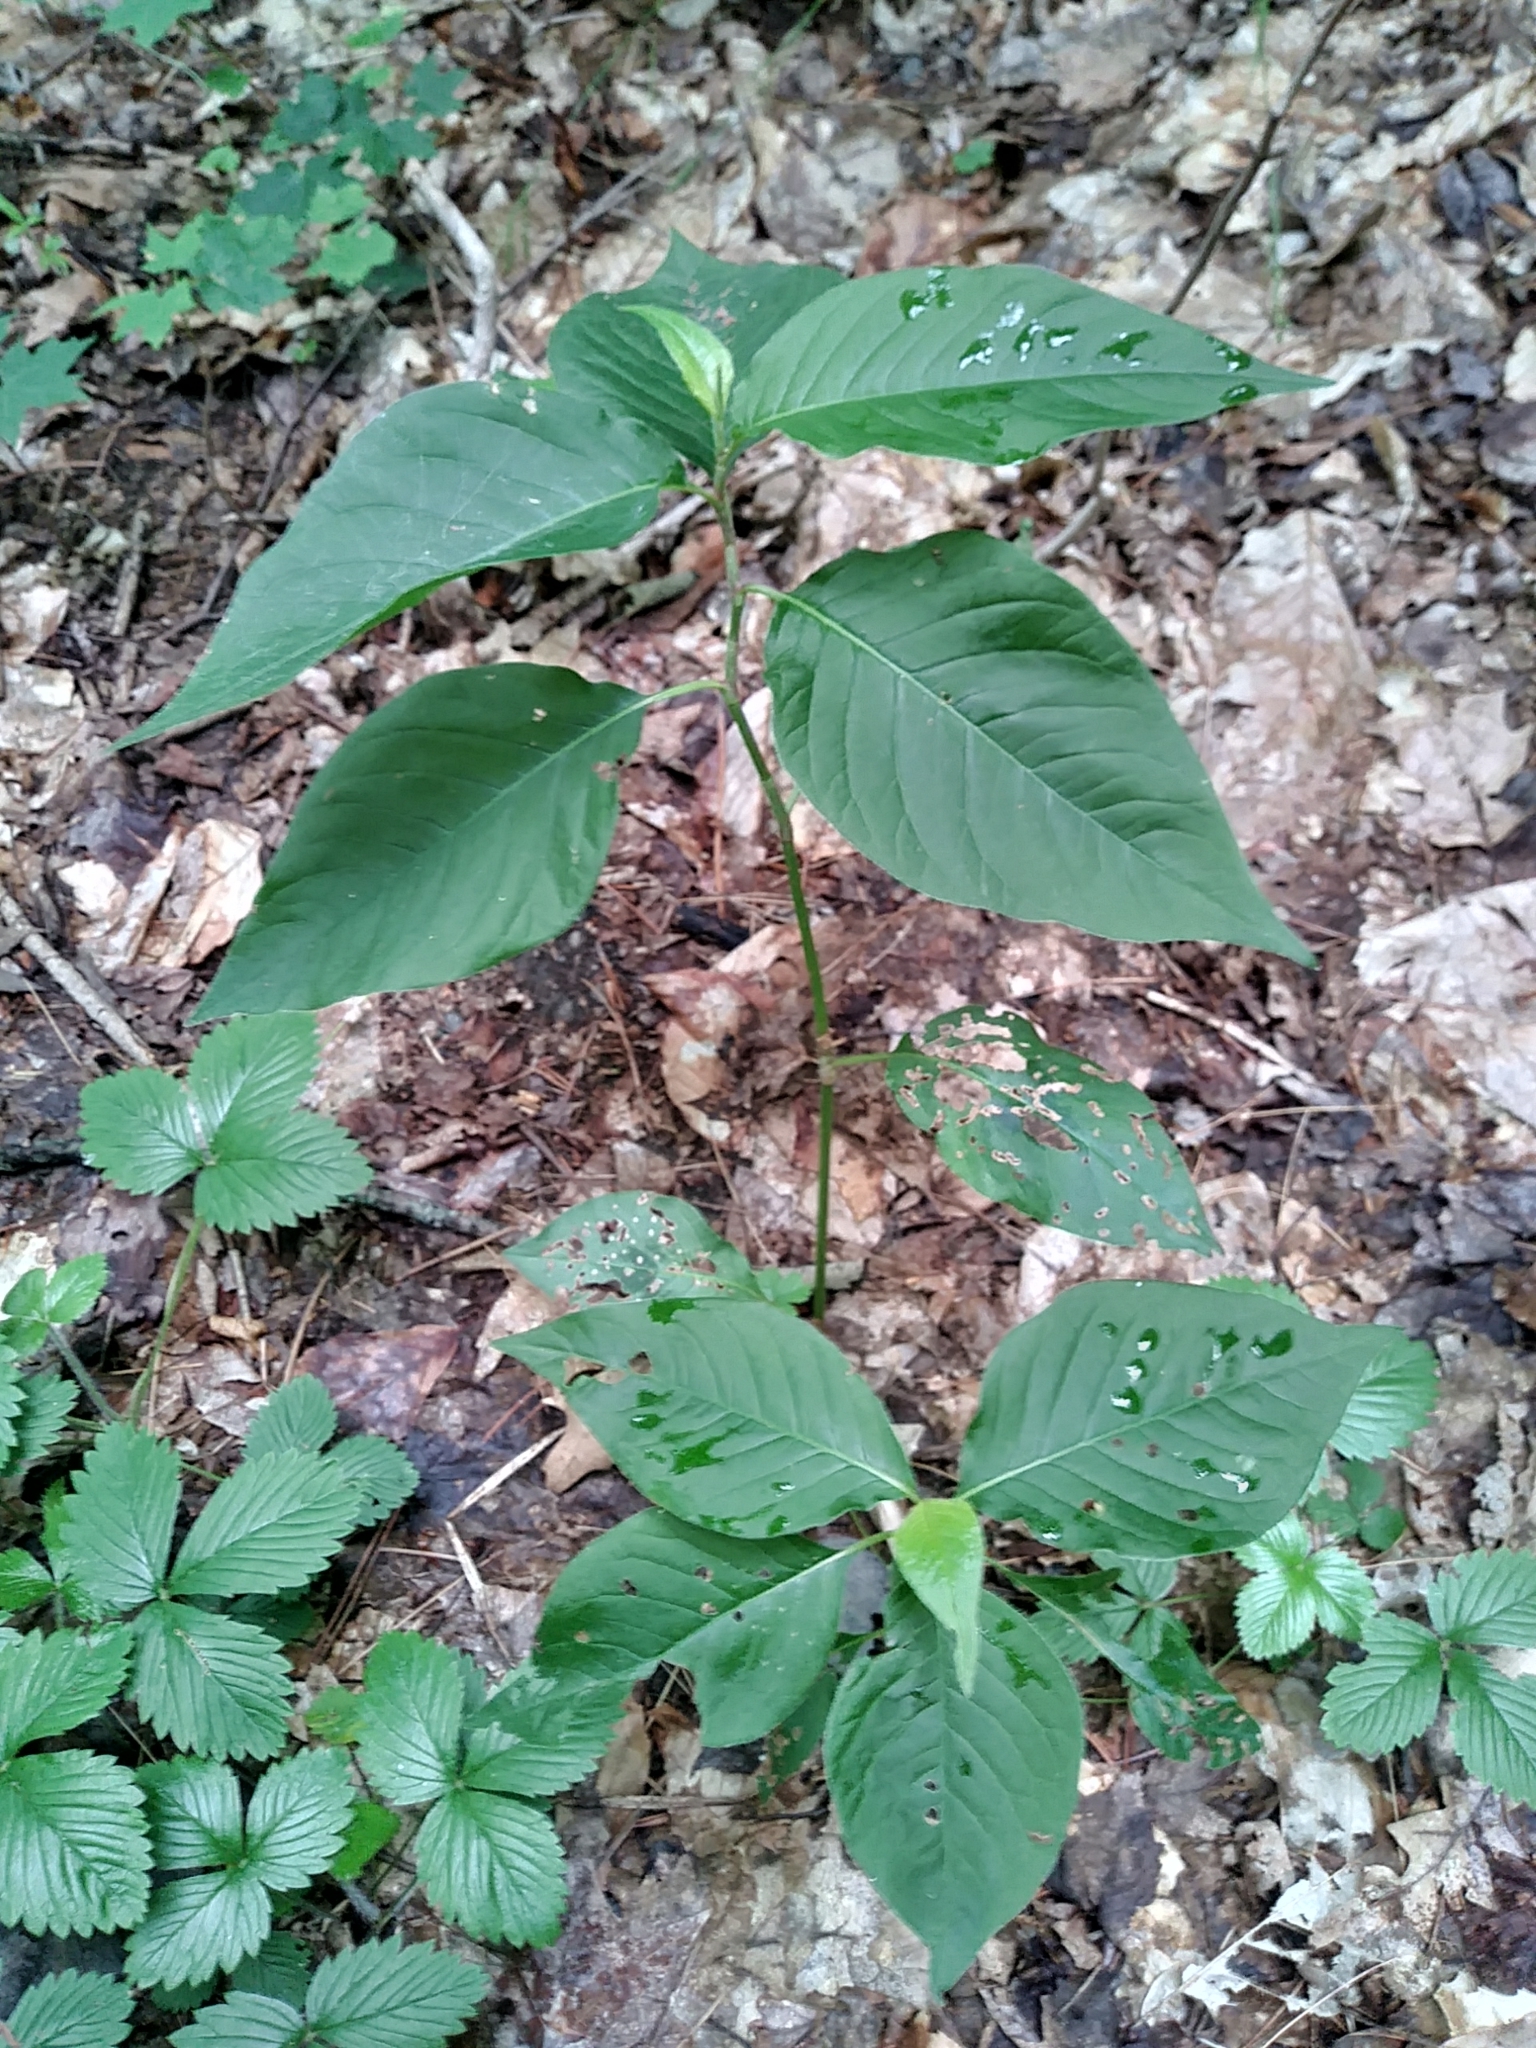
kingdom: Plantae
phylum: Tracheophyta
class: Magnoliopsida
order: Caryophyllales
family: Polygonaceae
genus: Persicaria
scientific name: Persicaria virginiana
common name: Jumpseed
